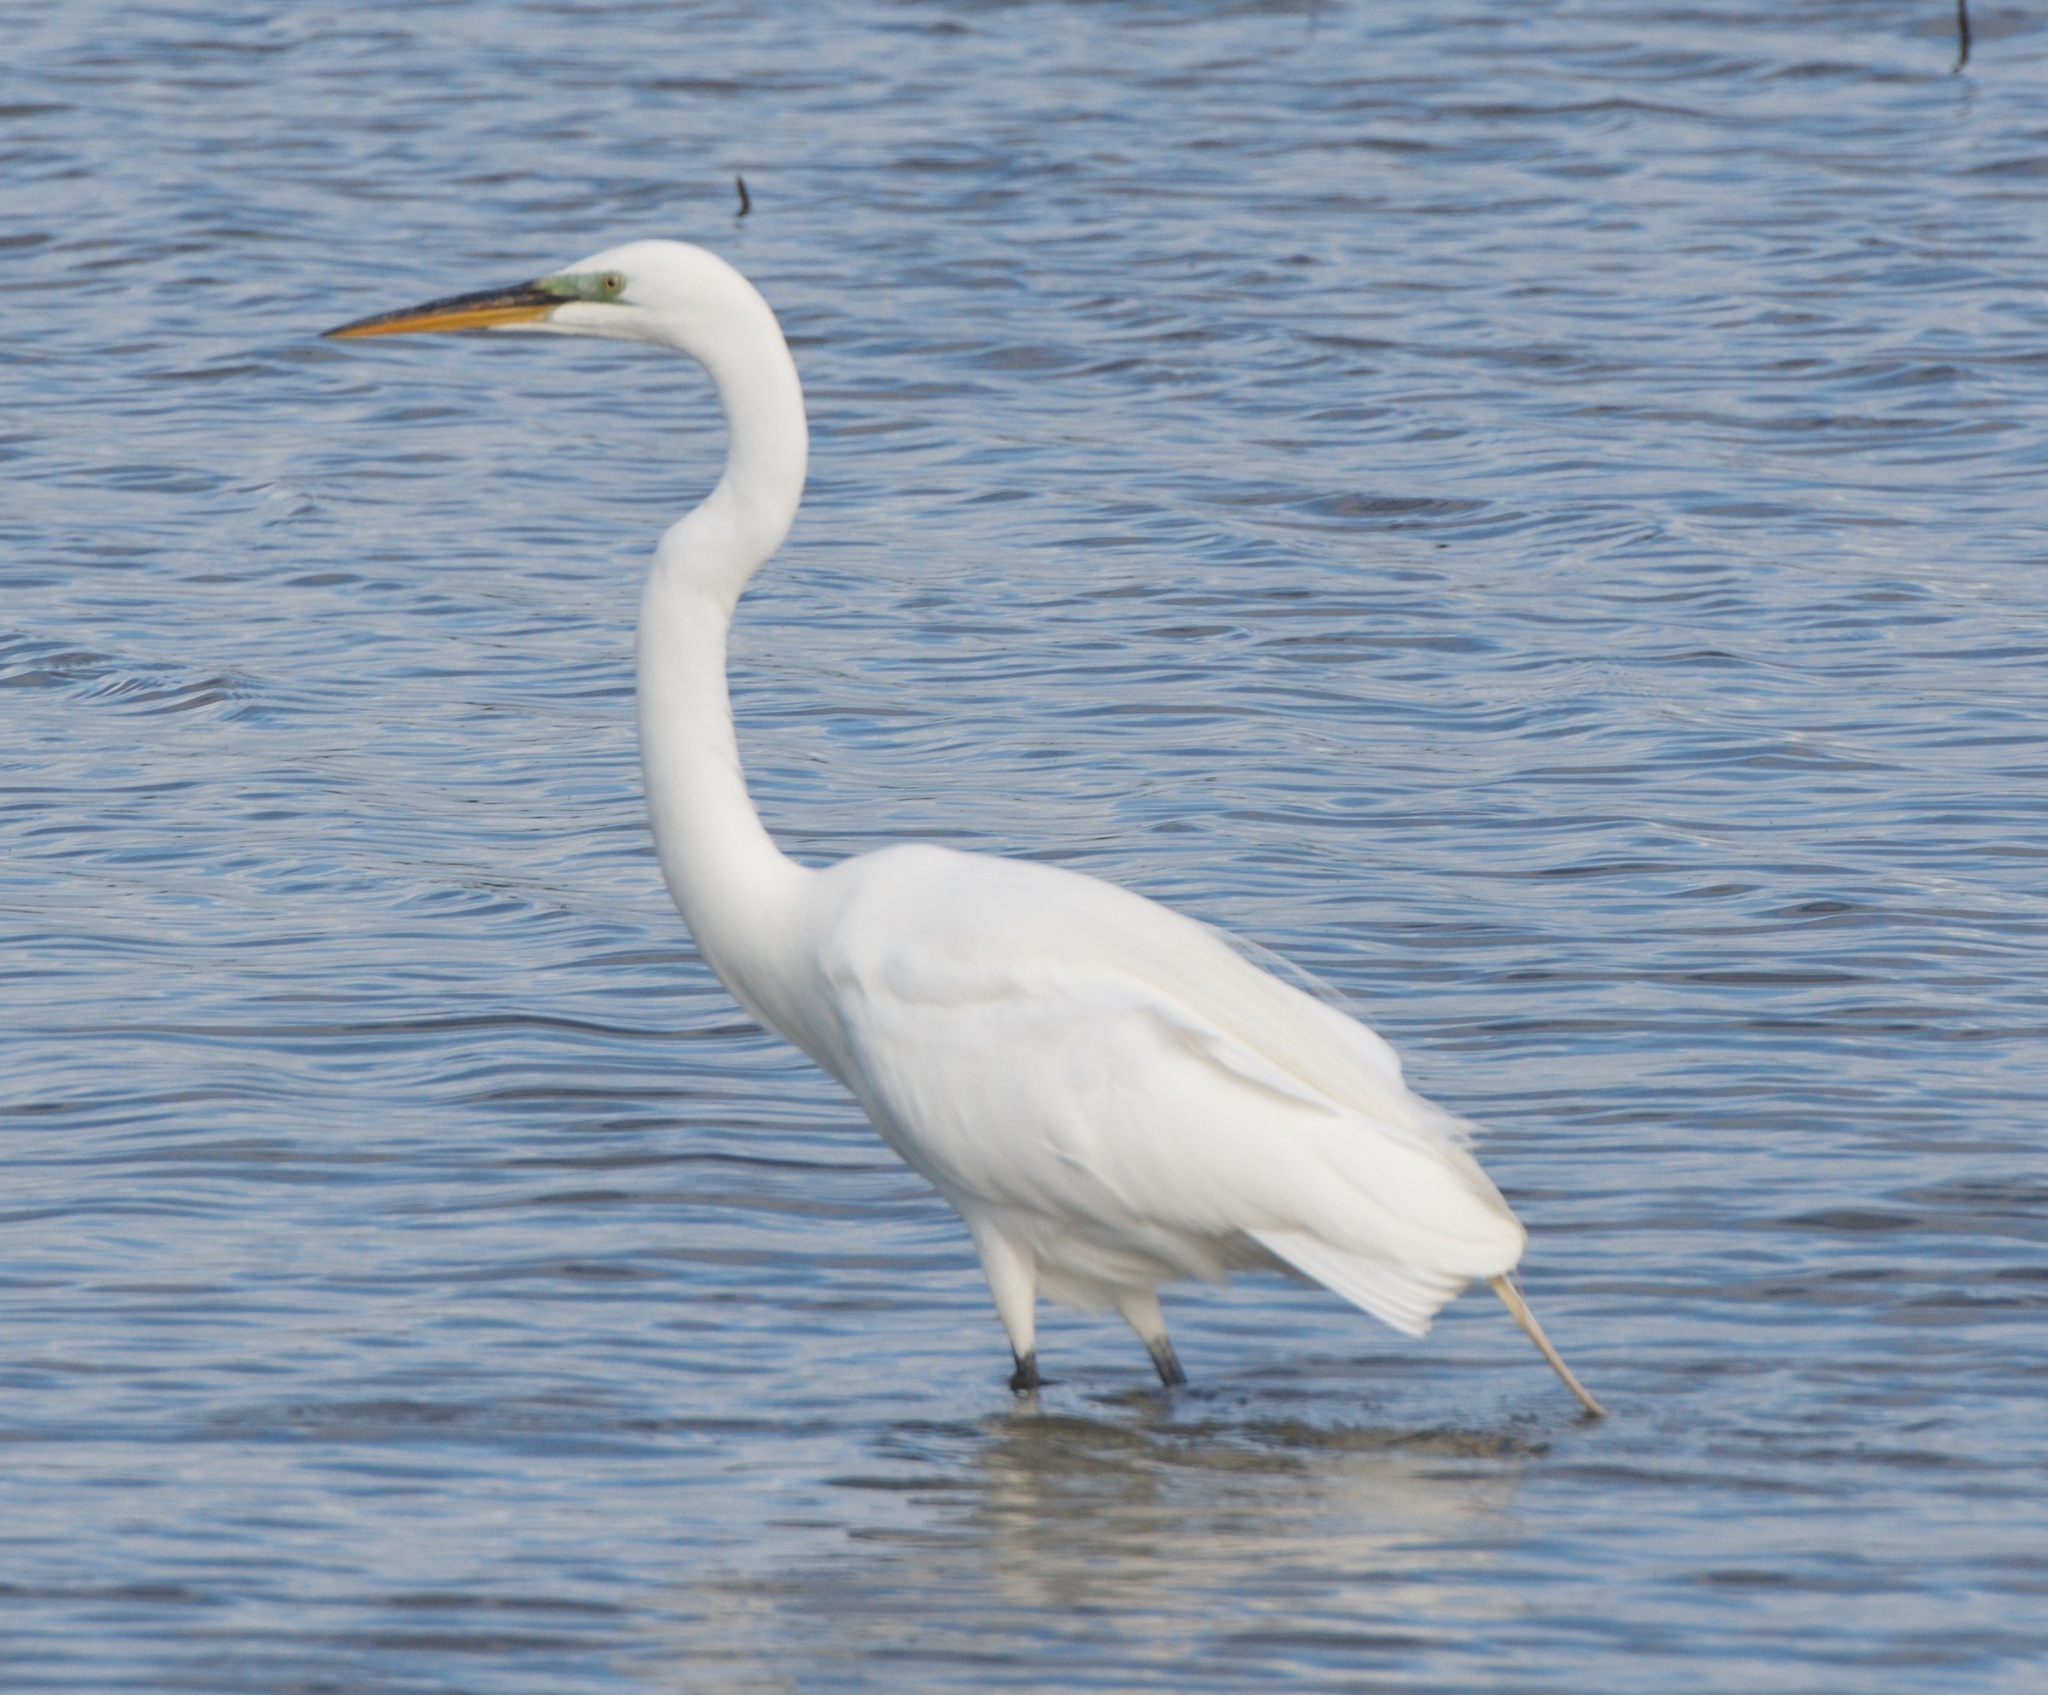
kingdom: Animalia
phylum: Chordata
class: Aves
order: Pelecaniformes
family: Ardeidae
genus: Ardea
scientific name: Ardea alba
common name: Great egret
